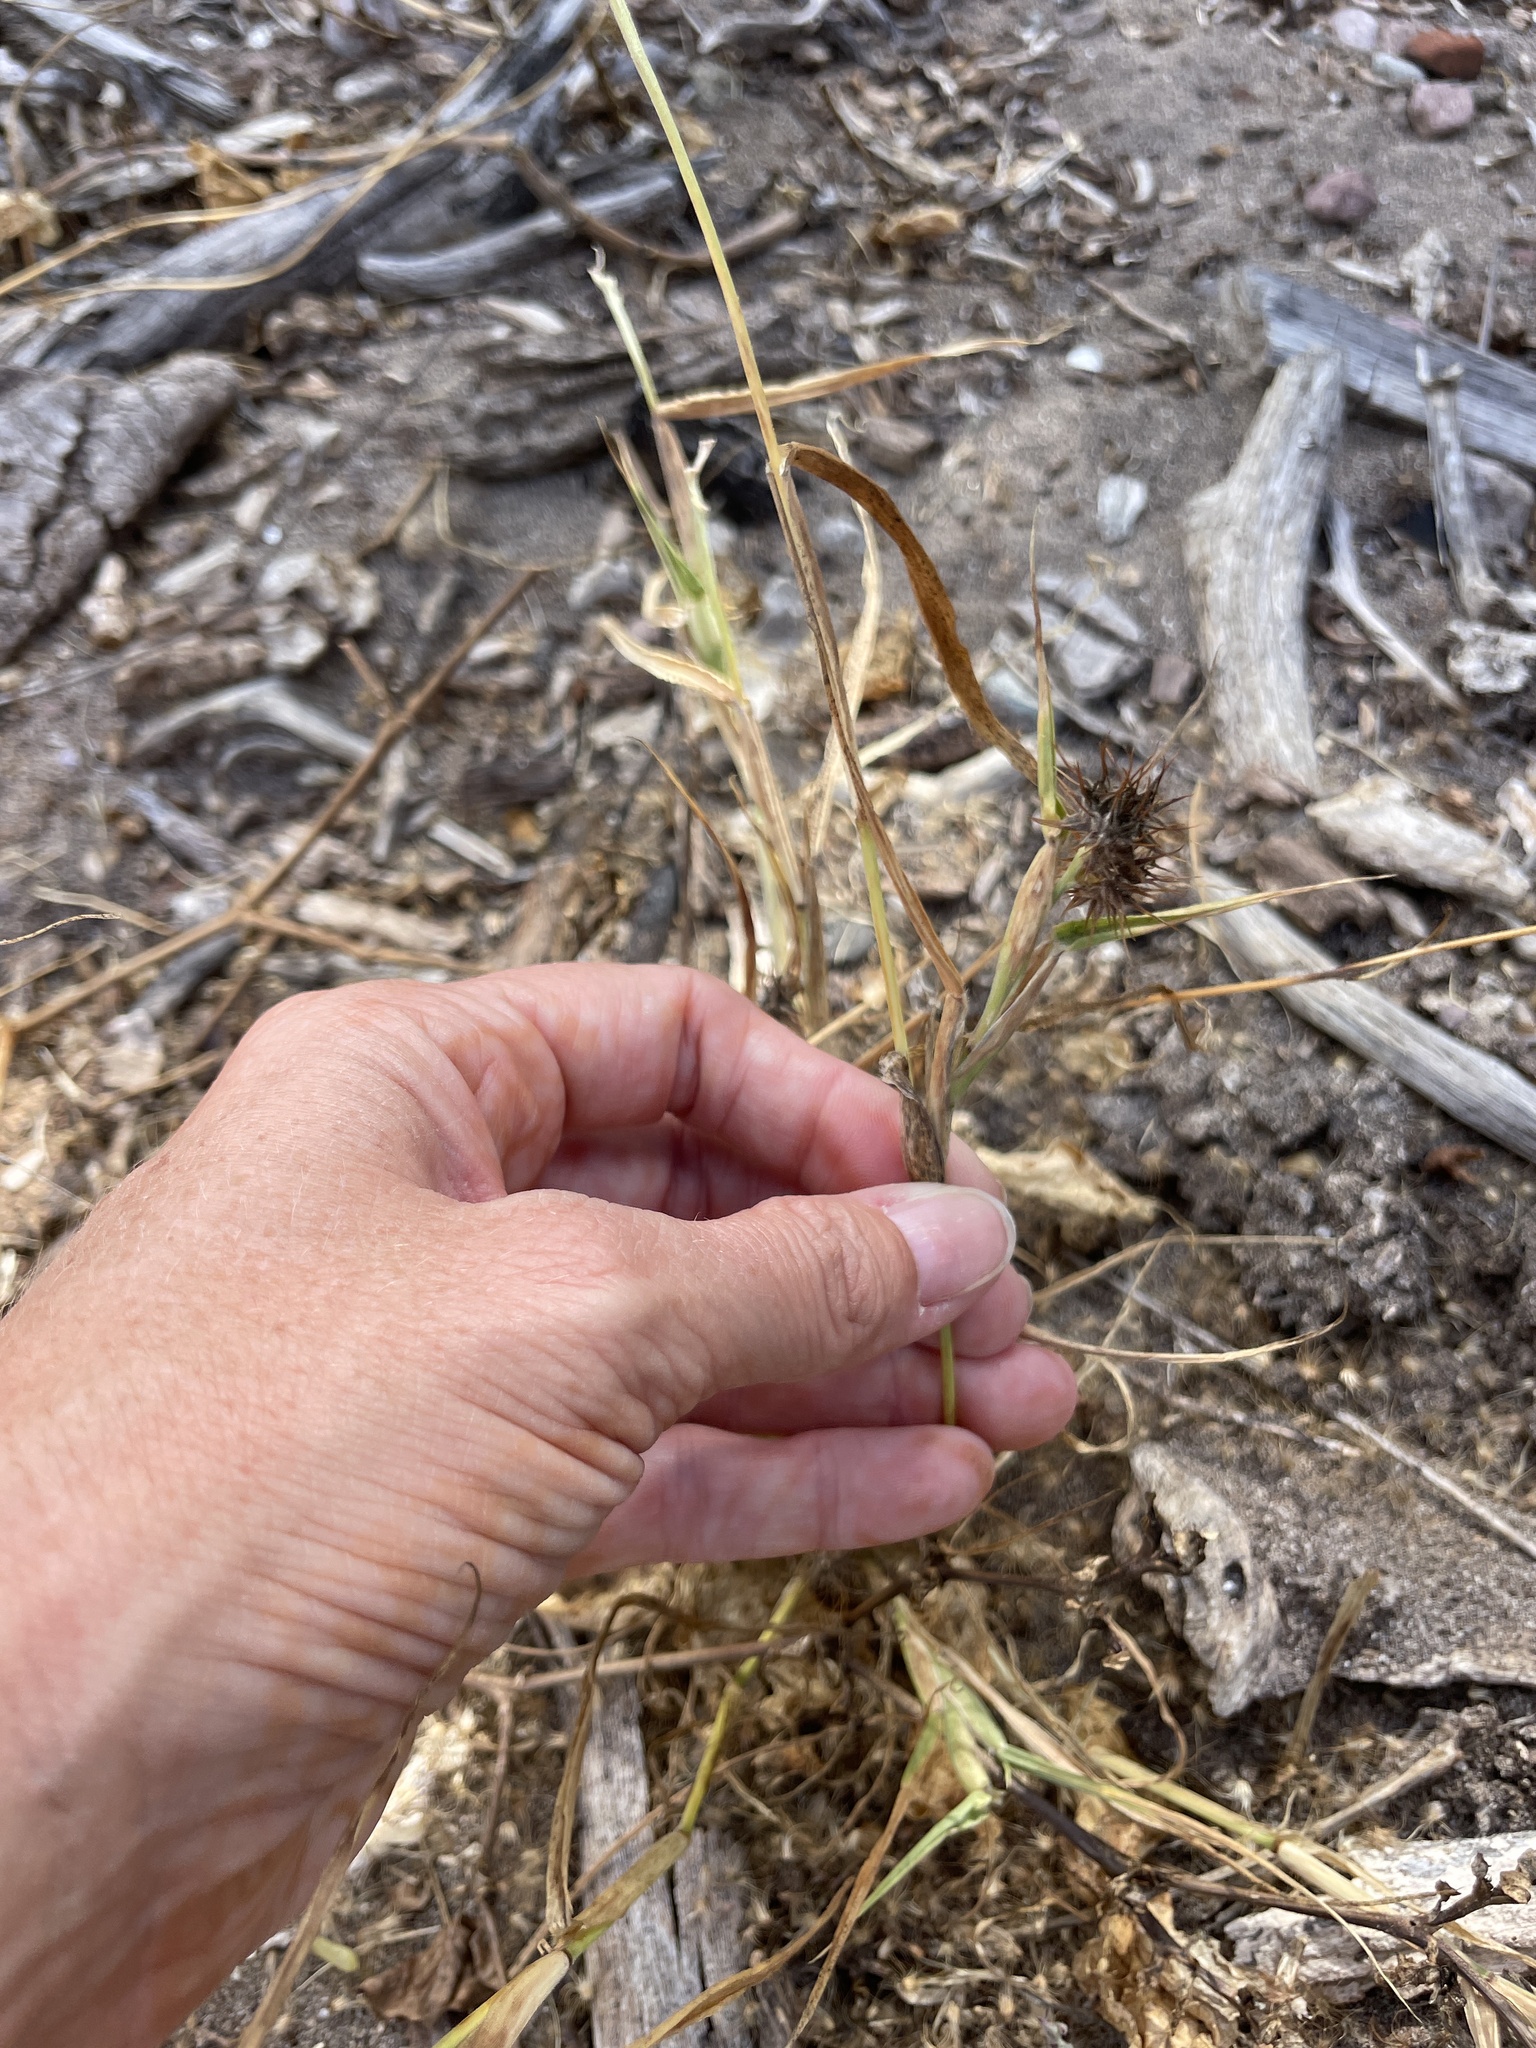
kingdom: Plantae
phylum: Tracheophyta
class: Liliopsida
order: Poales
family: Poaceae
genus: Cenchrus
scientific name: Cenchrus palmeri
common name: Giant sandbur
